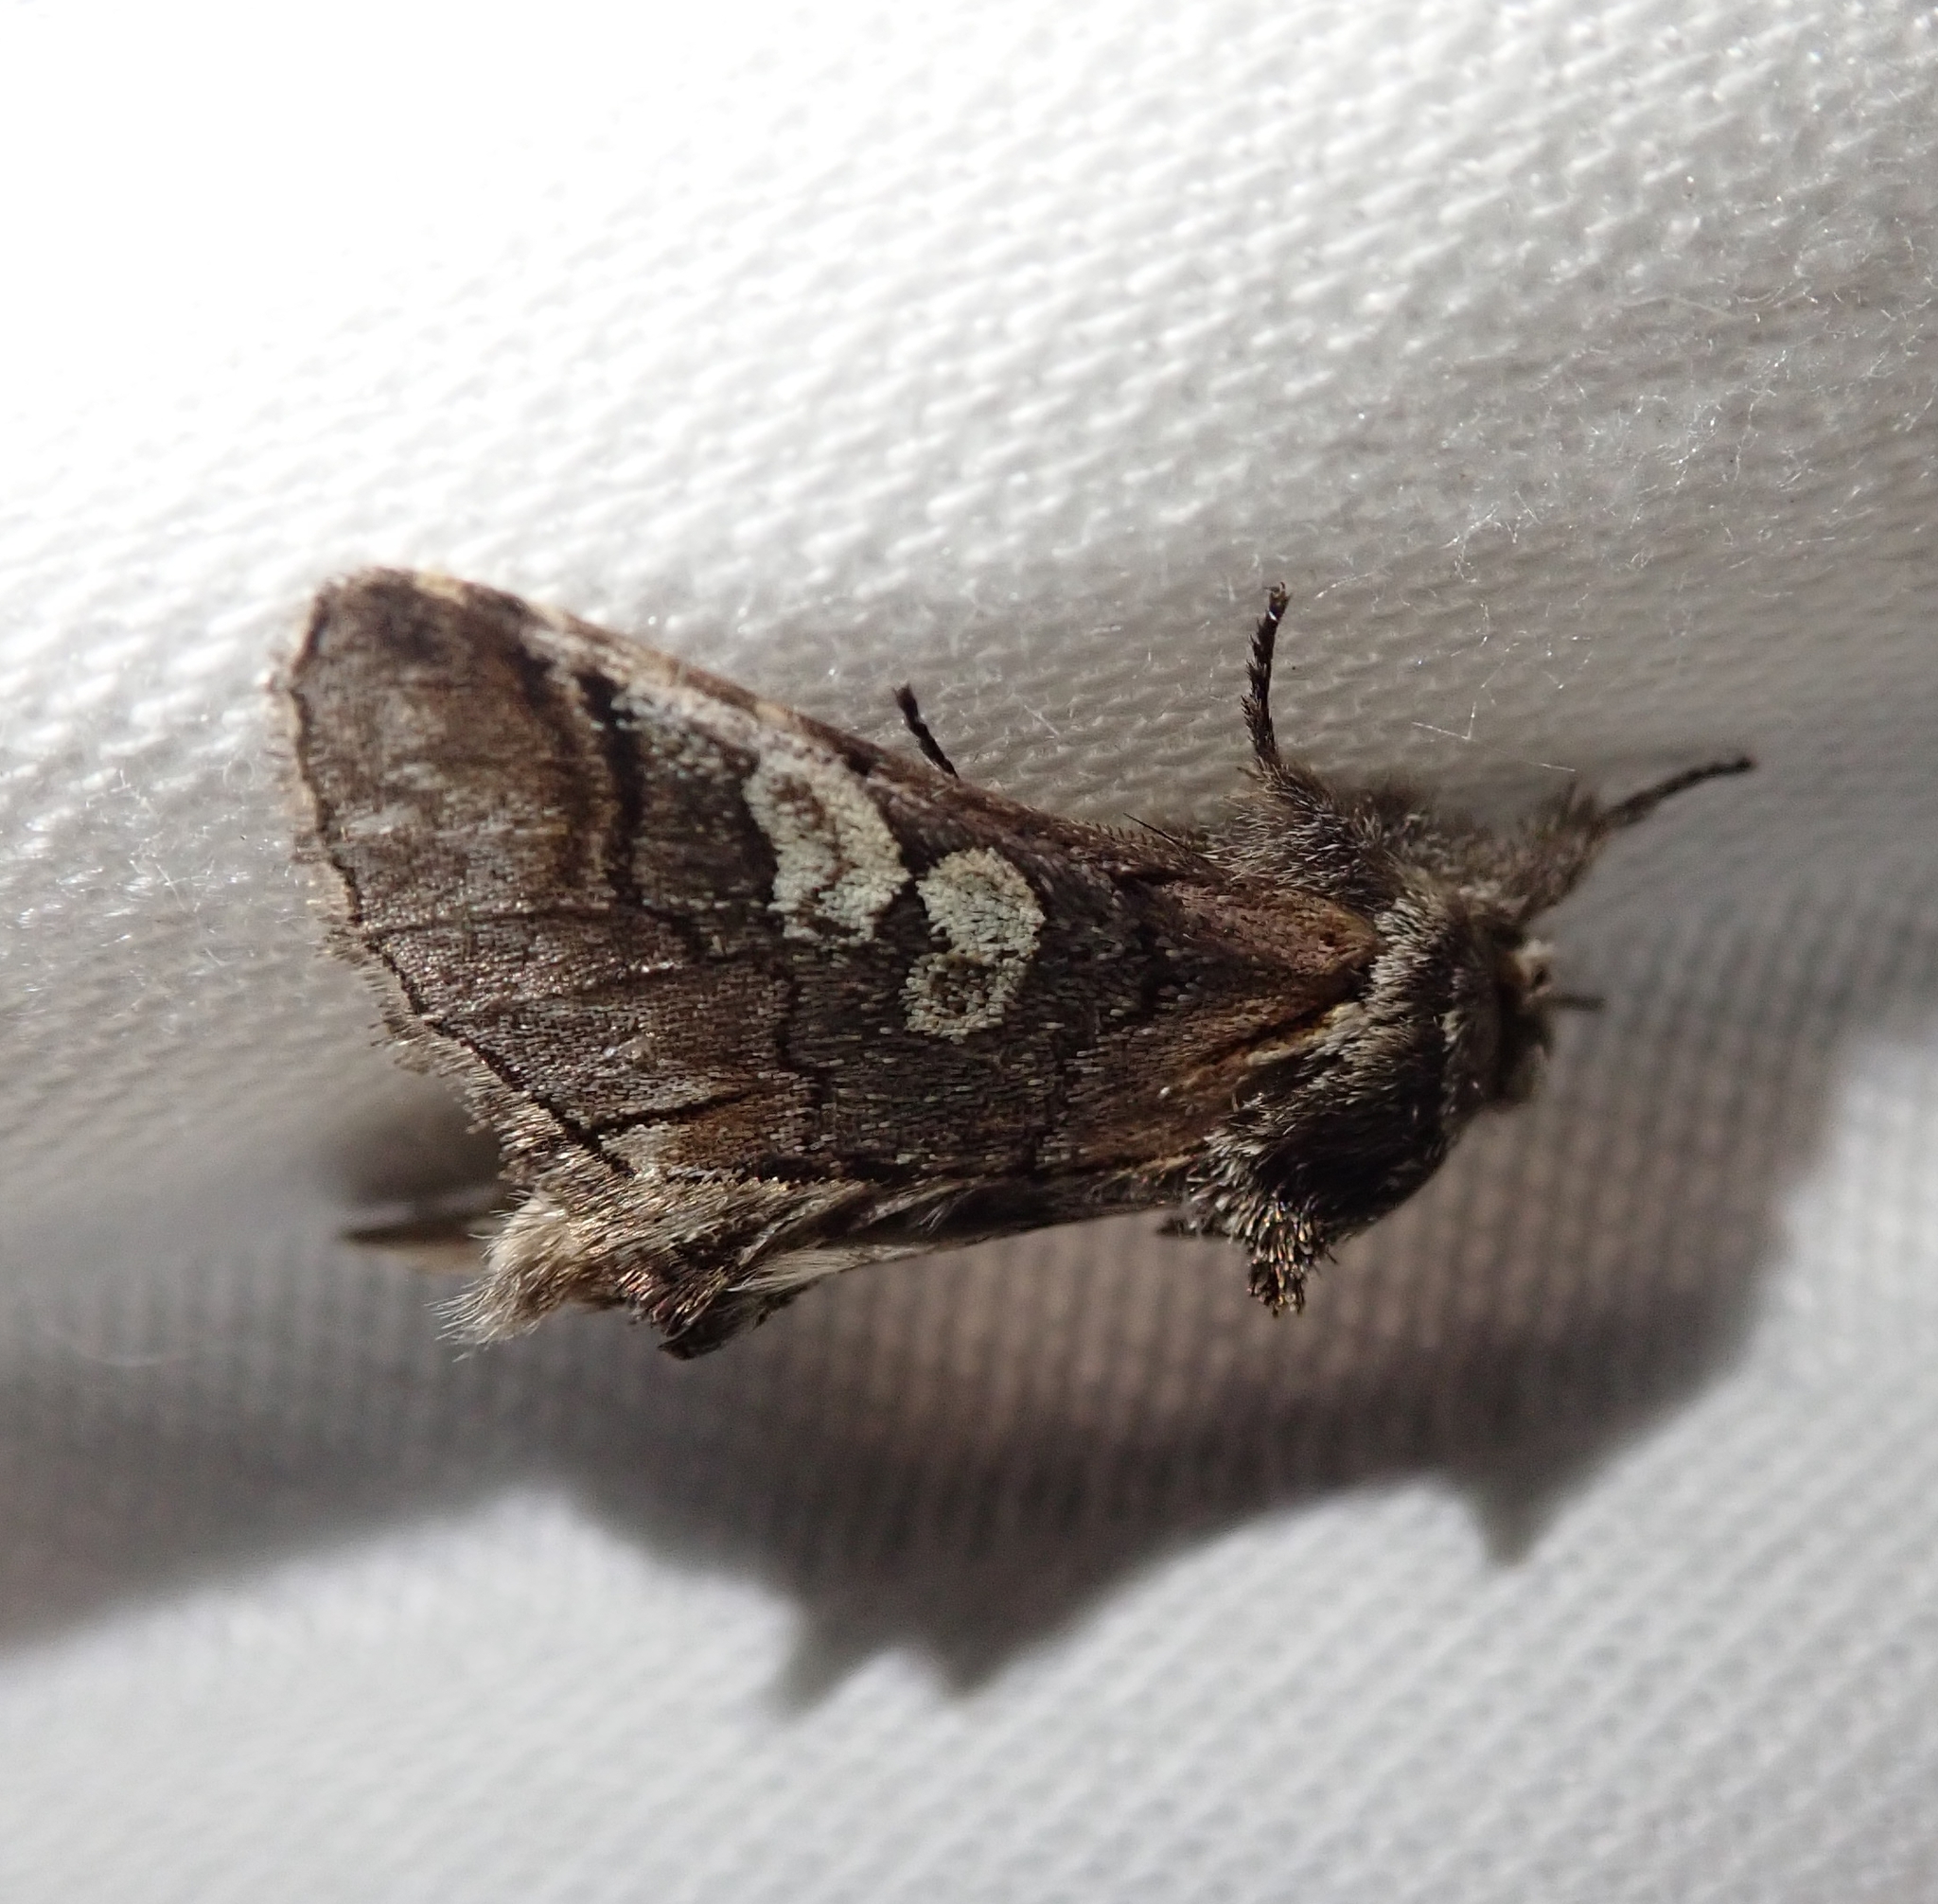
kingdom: Animalia
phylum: Arthropoda
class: Insecta
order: Lepidoptera
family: Noctuidae
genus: Diloba
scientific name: Diloba caeruleocephala
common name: Figure of eight
